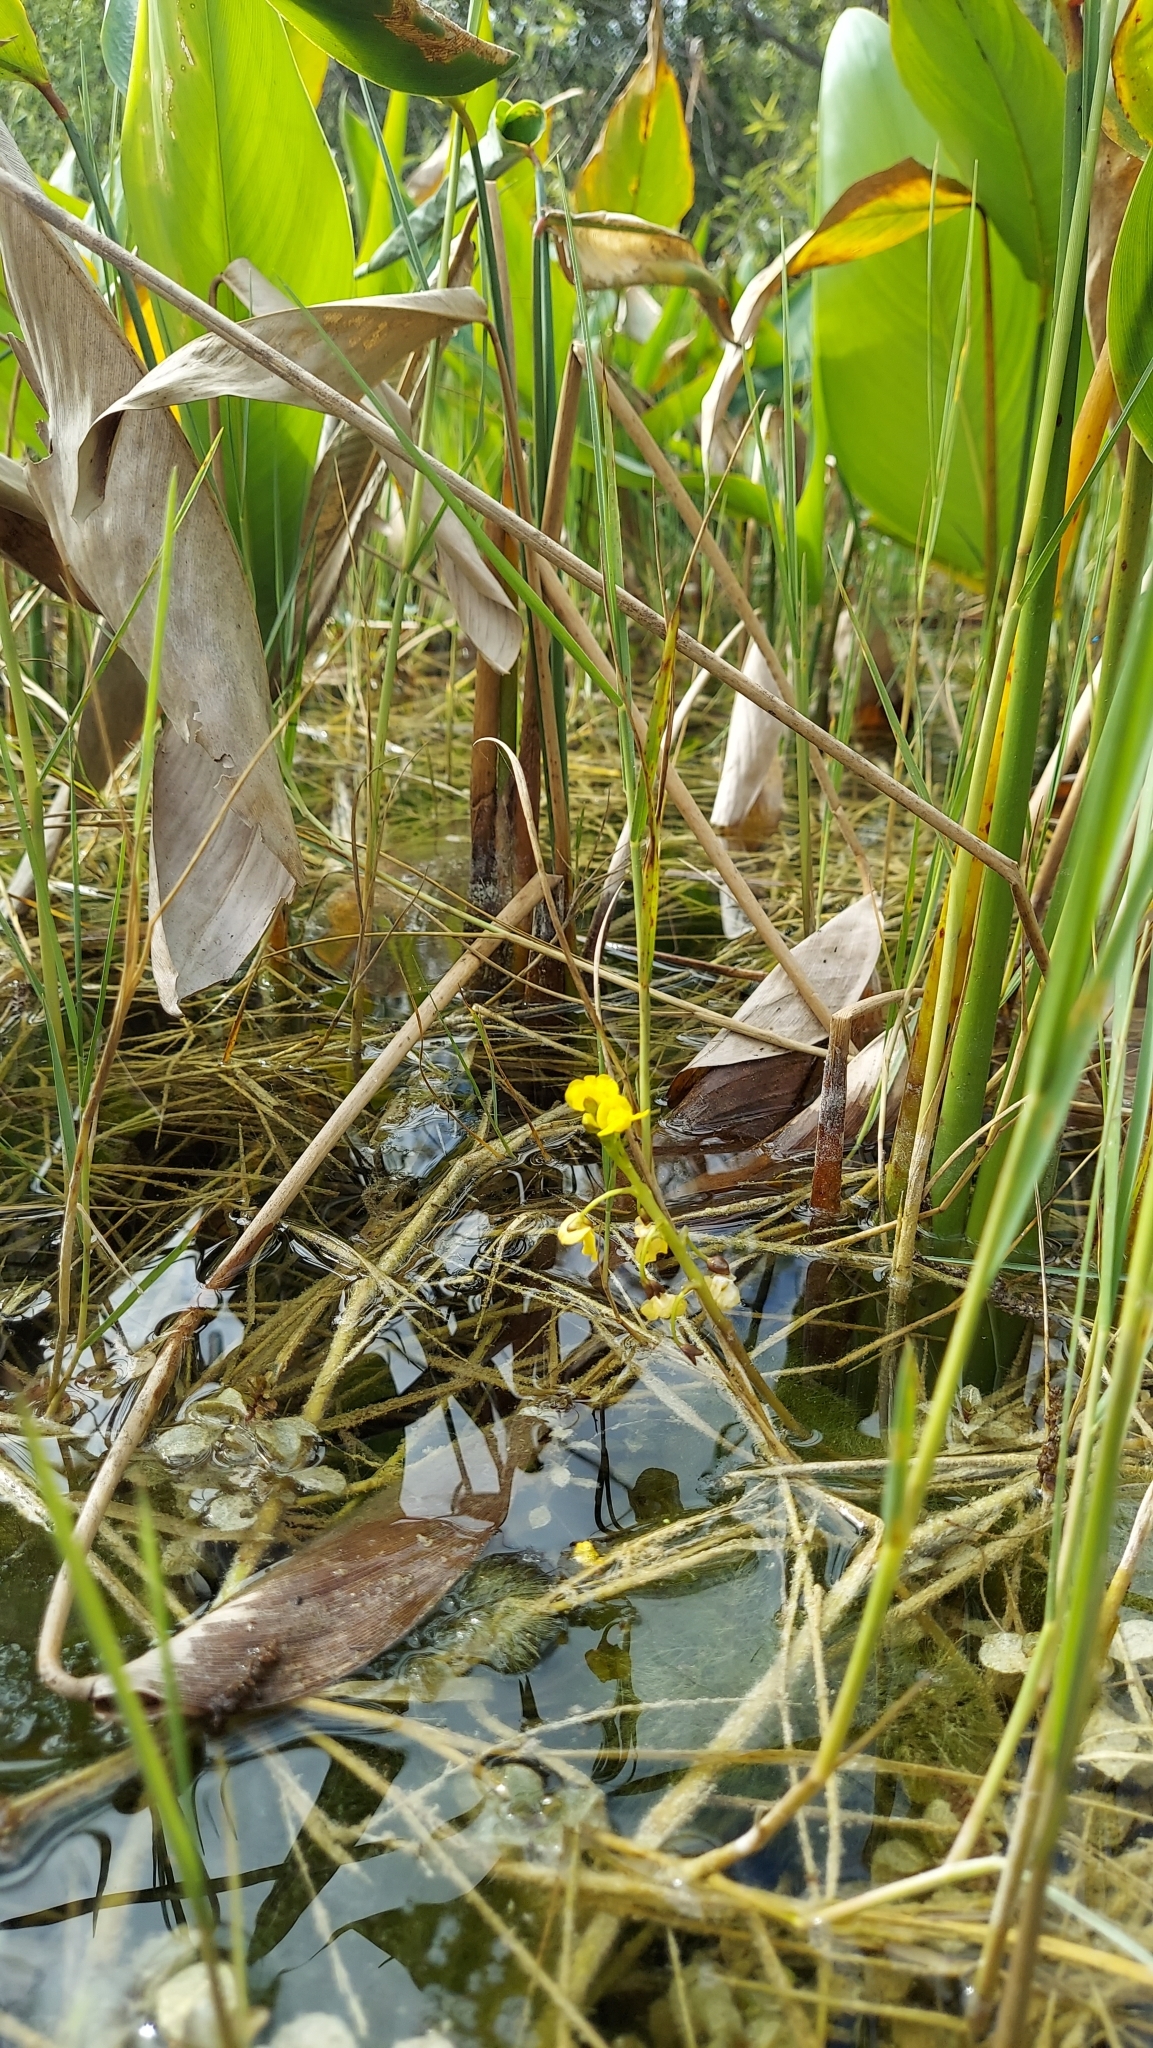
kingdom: Plantae
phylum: Tracheophyta
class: Magnoliopsida
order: Lamiales
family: Lentibulariaceae
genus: Utricularia
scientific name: Utricularia foliosa
